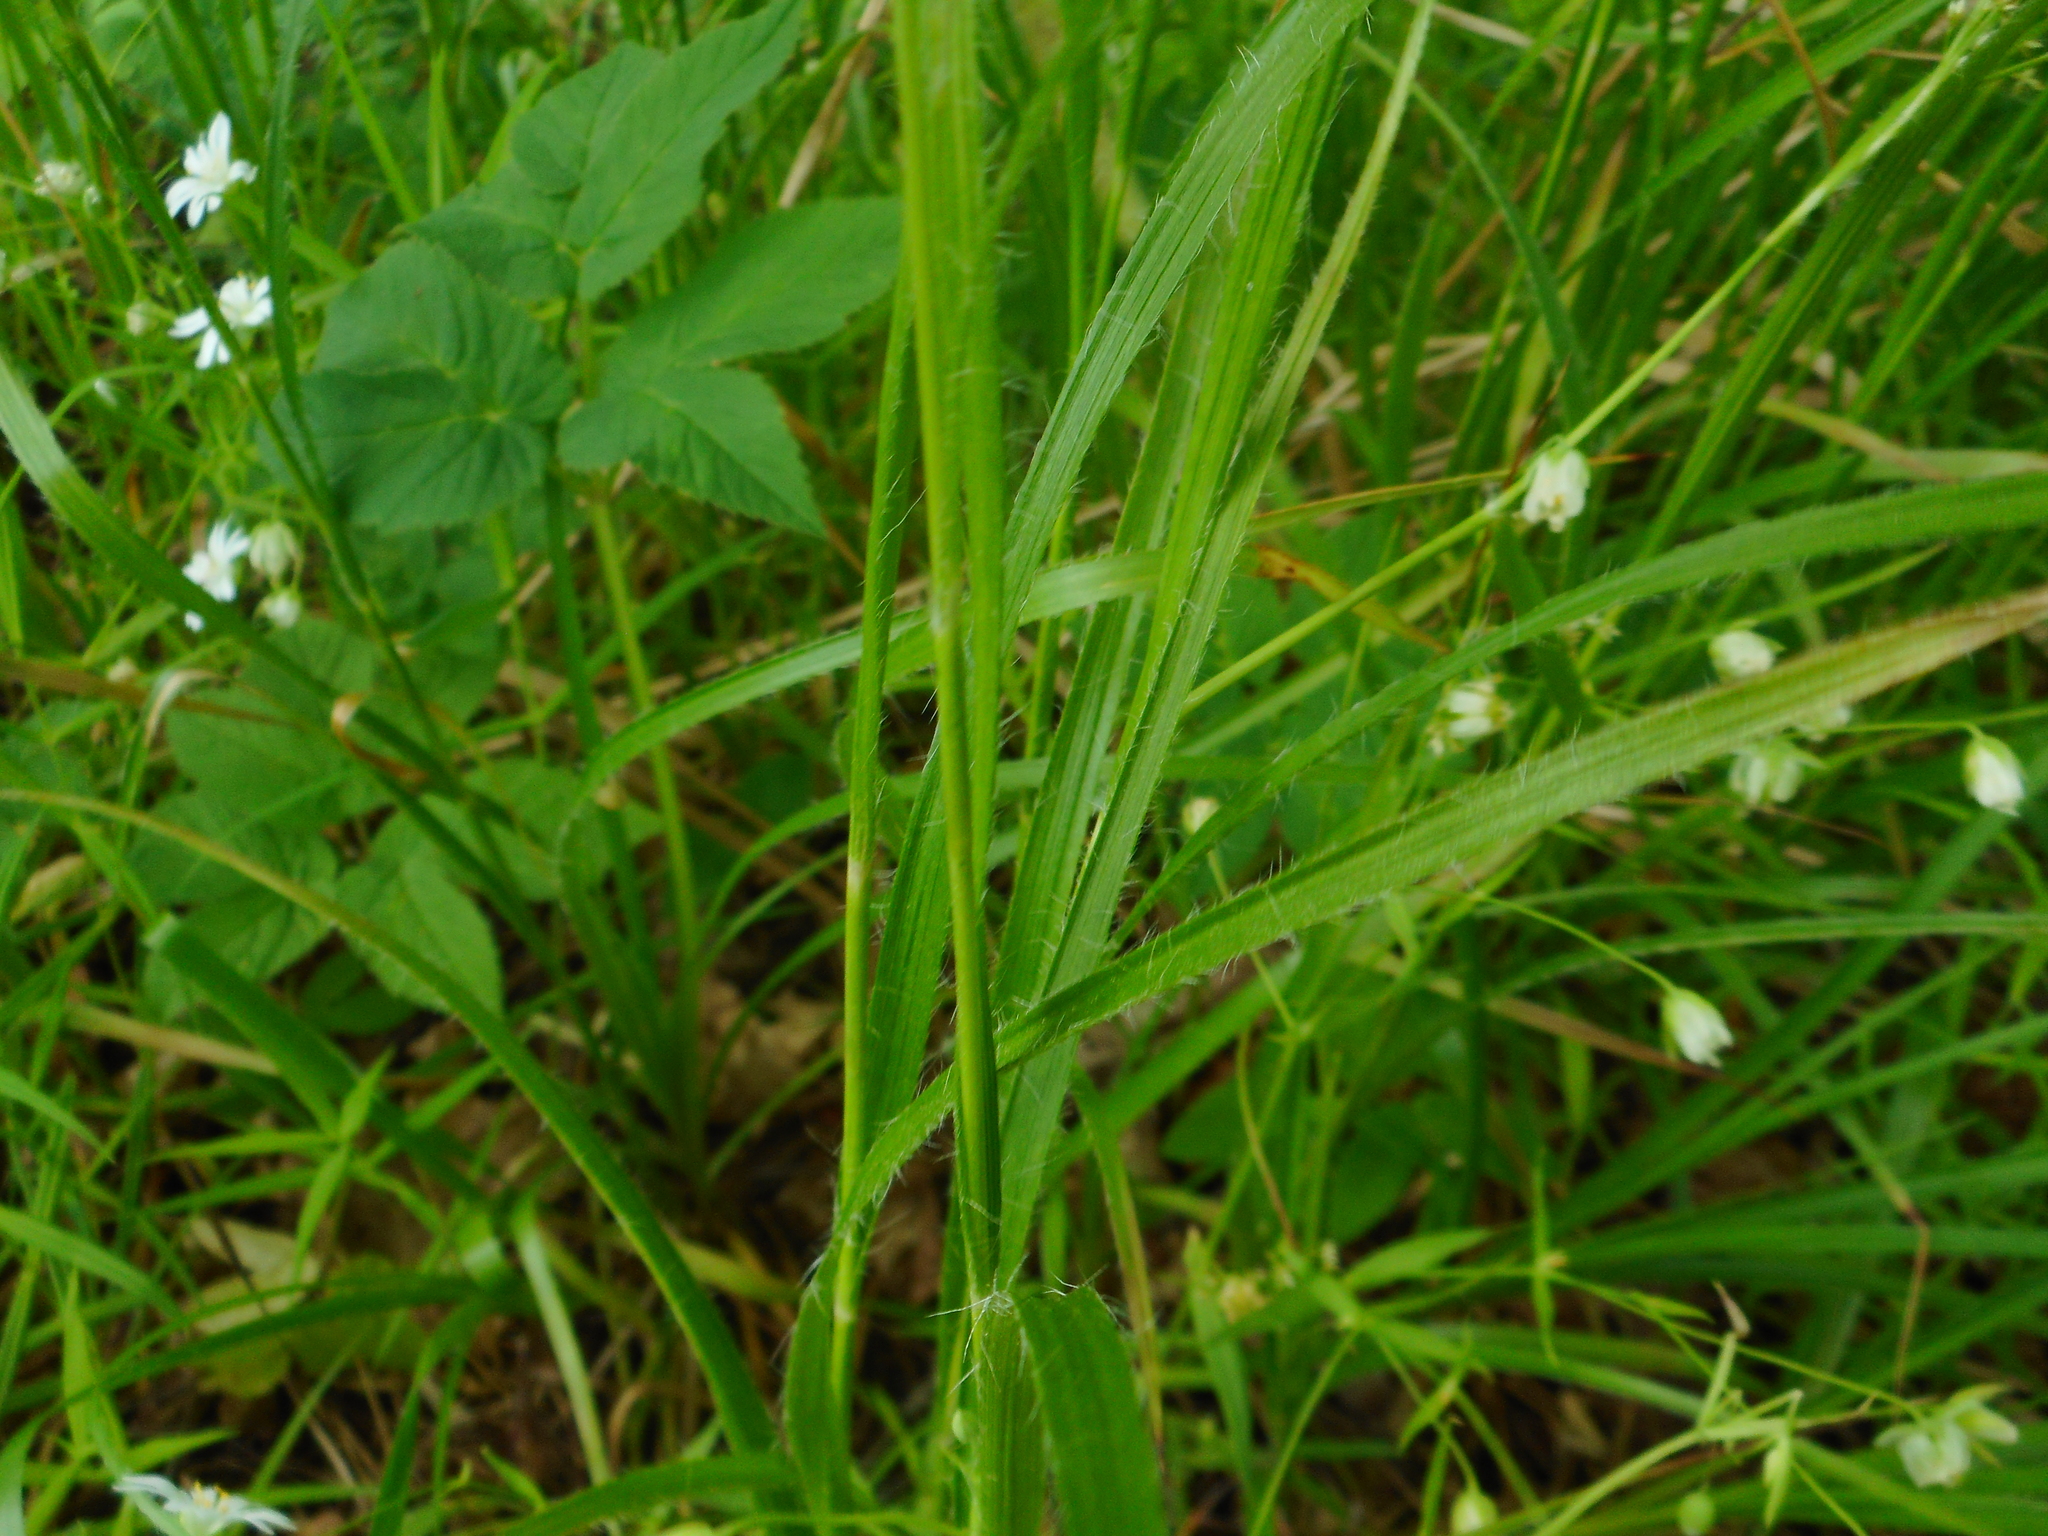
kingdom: Plantae
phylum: Tracheophyta
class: Liliopsida
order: Poales
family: Juncaceae
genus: Luzula
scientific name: Luzula luzuloides
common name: White wood-rush
